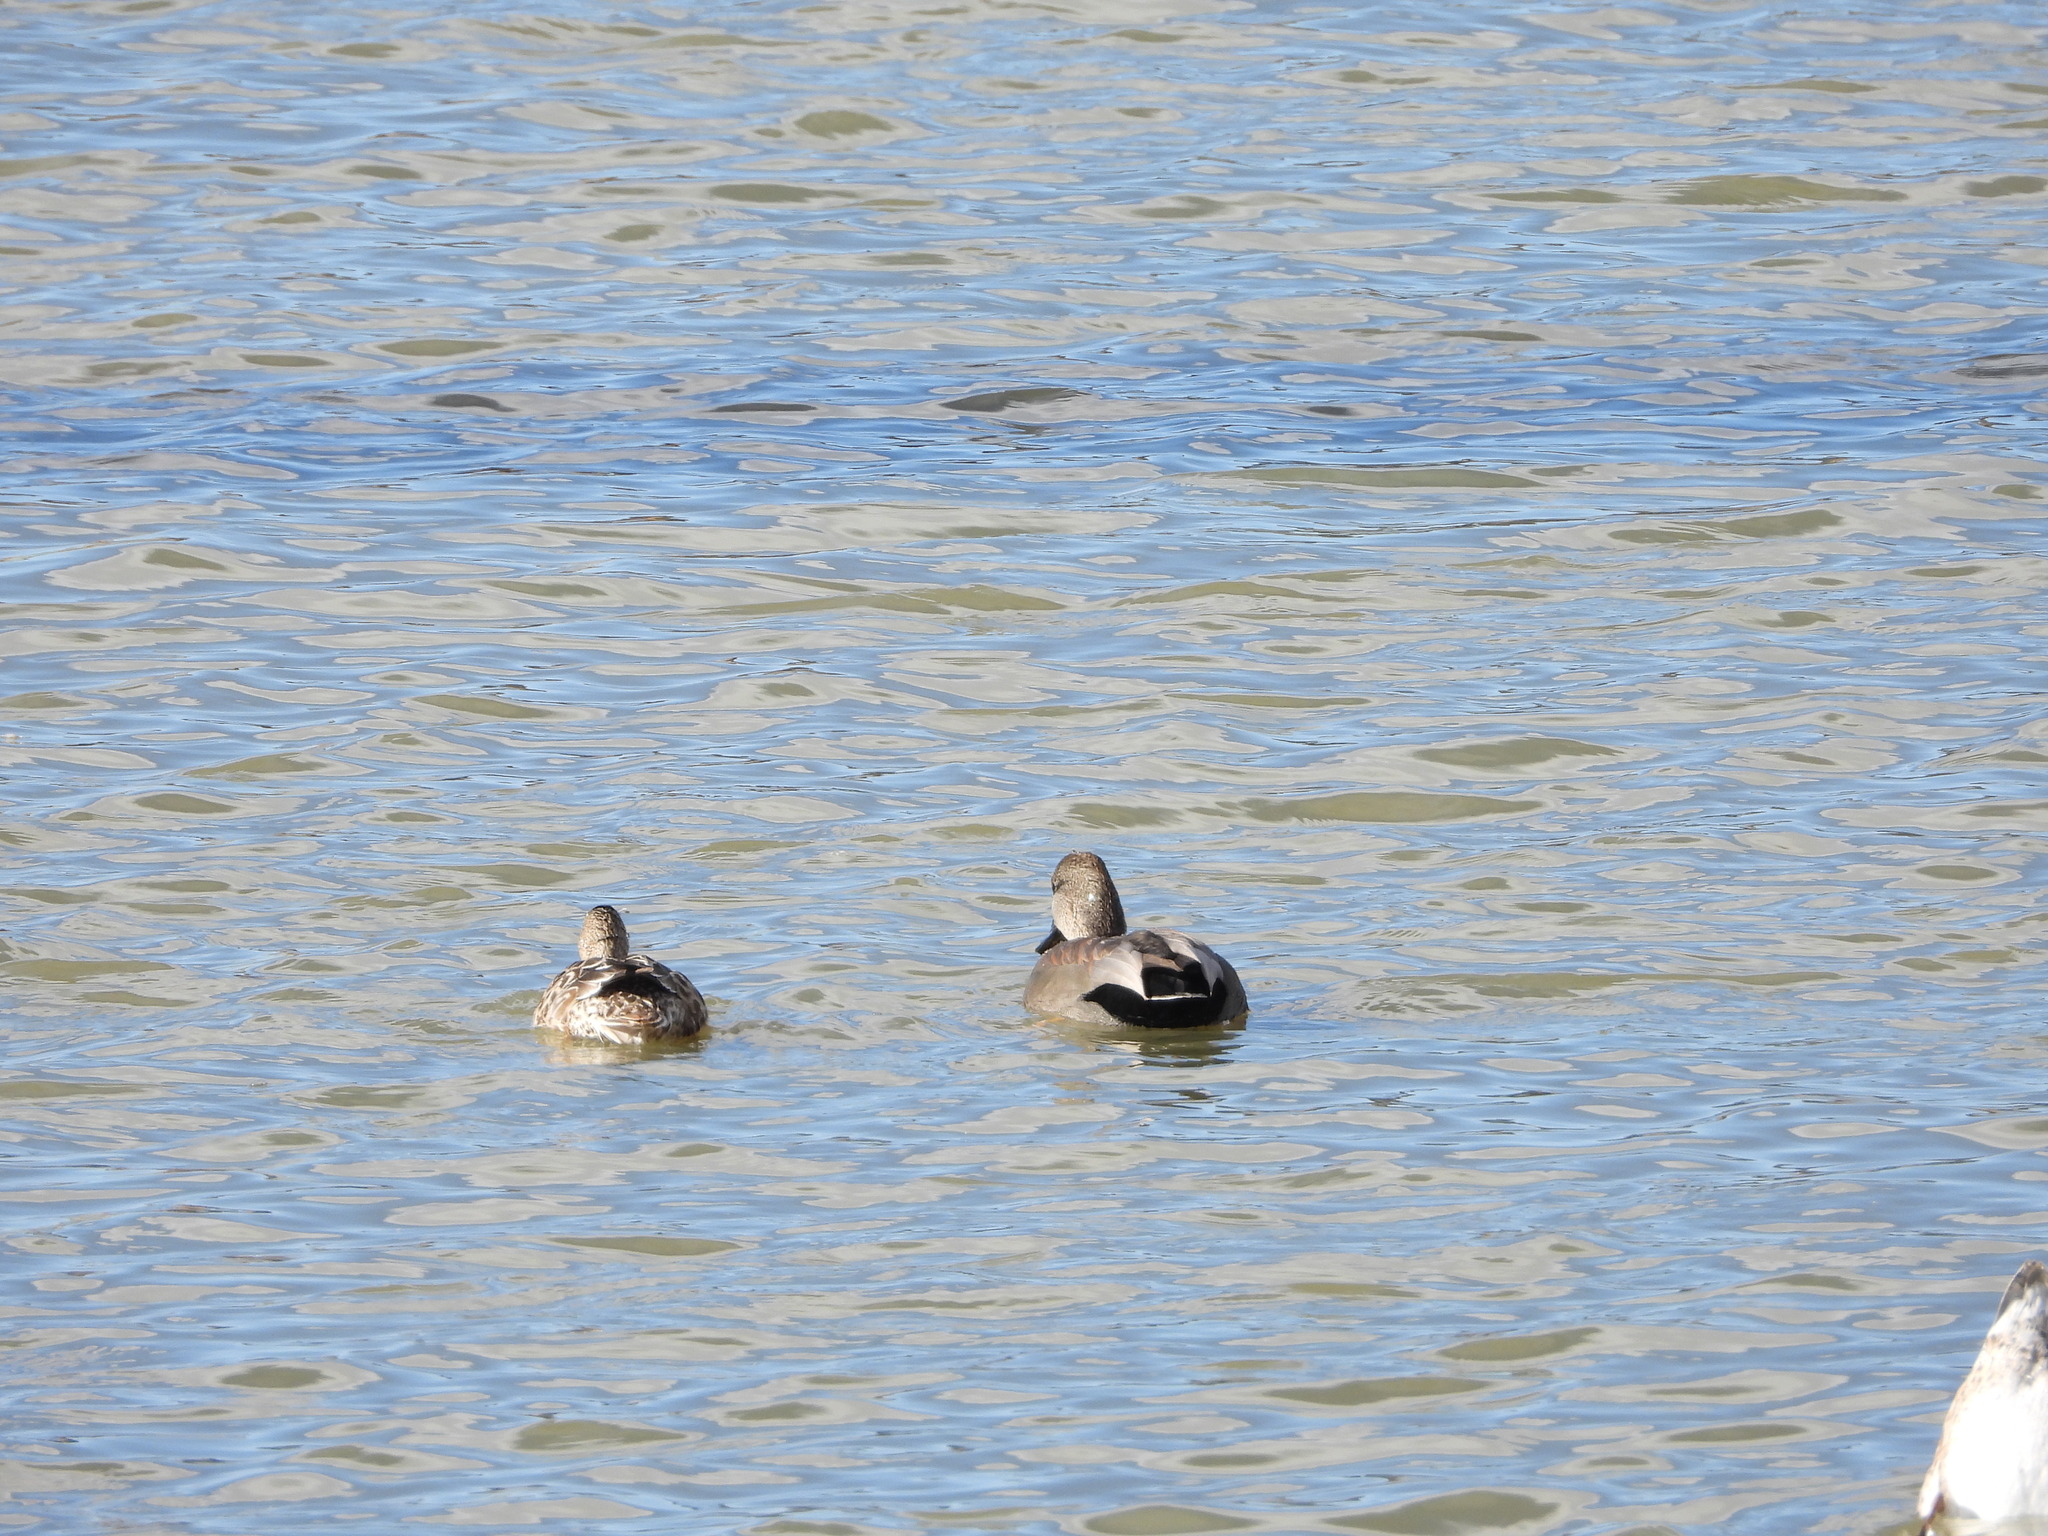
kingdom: Animalia
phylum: Chordata
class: Aves
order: Anseriformes
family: Anatidae
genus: Mareca
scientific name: Mareca strepera
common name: Gadwall
